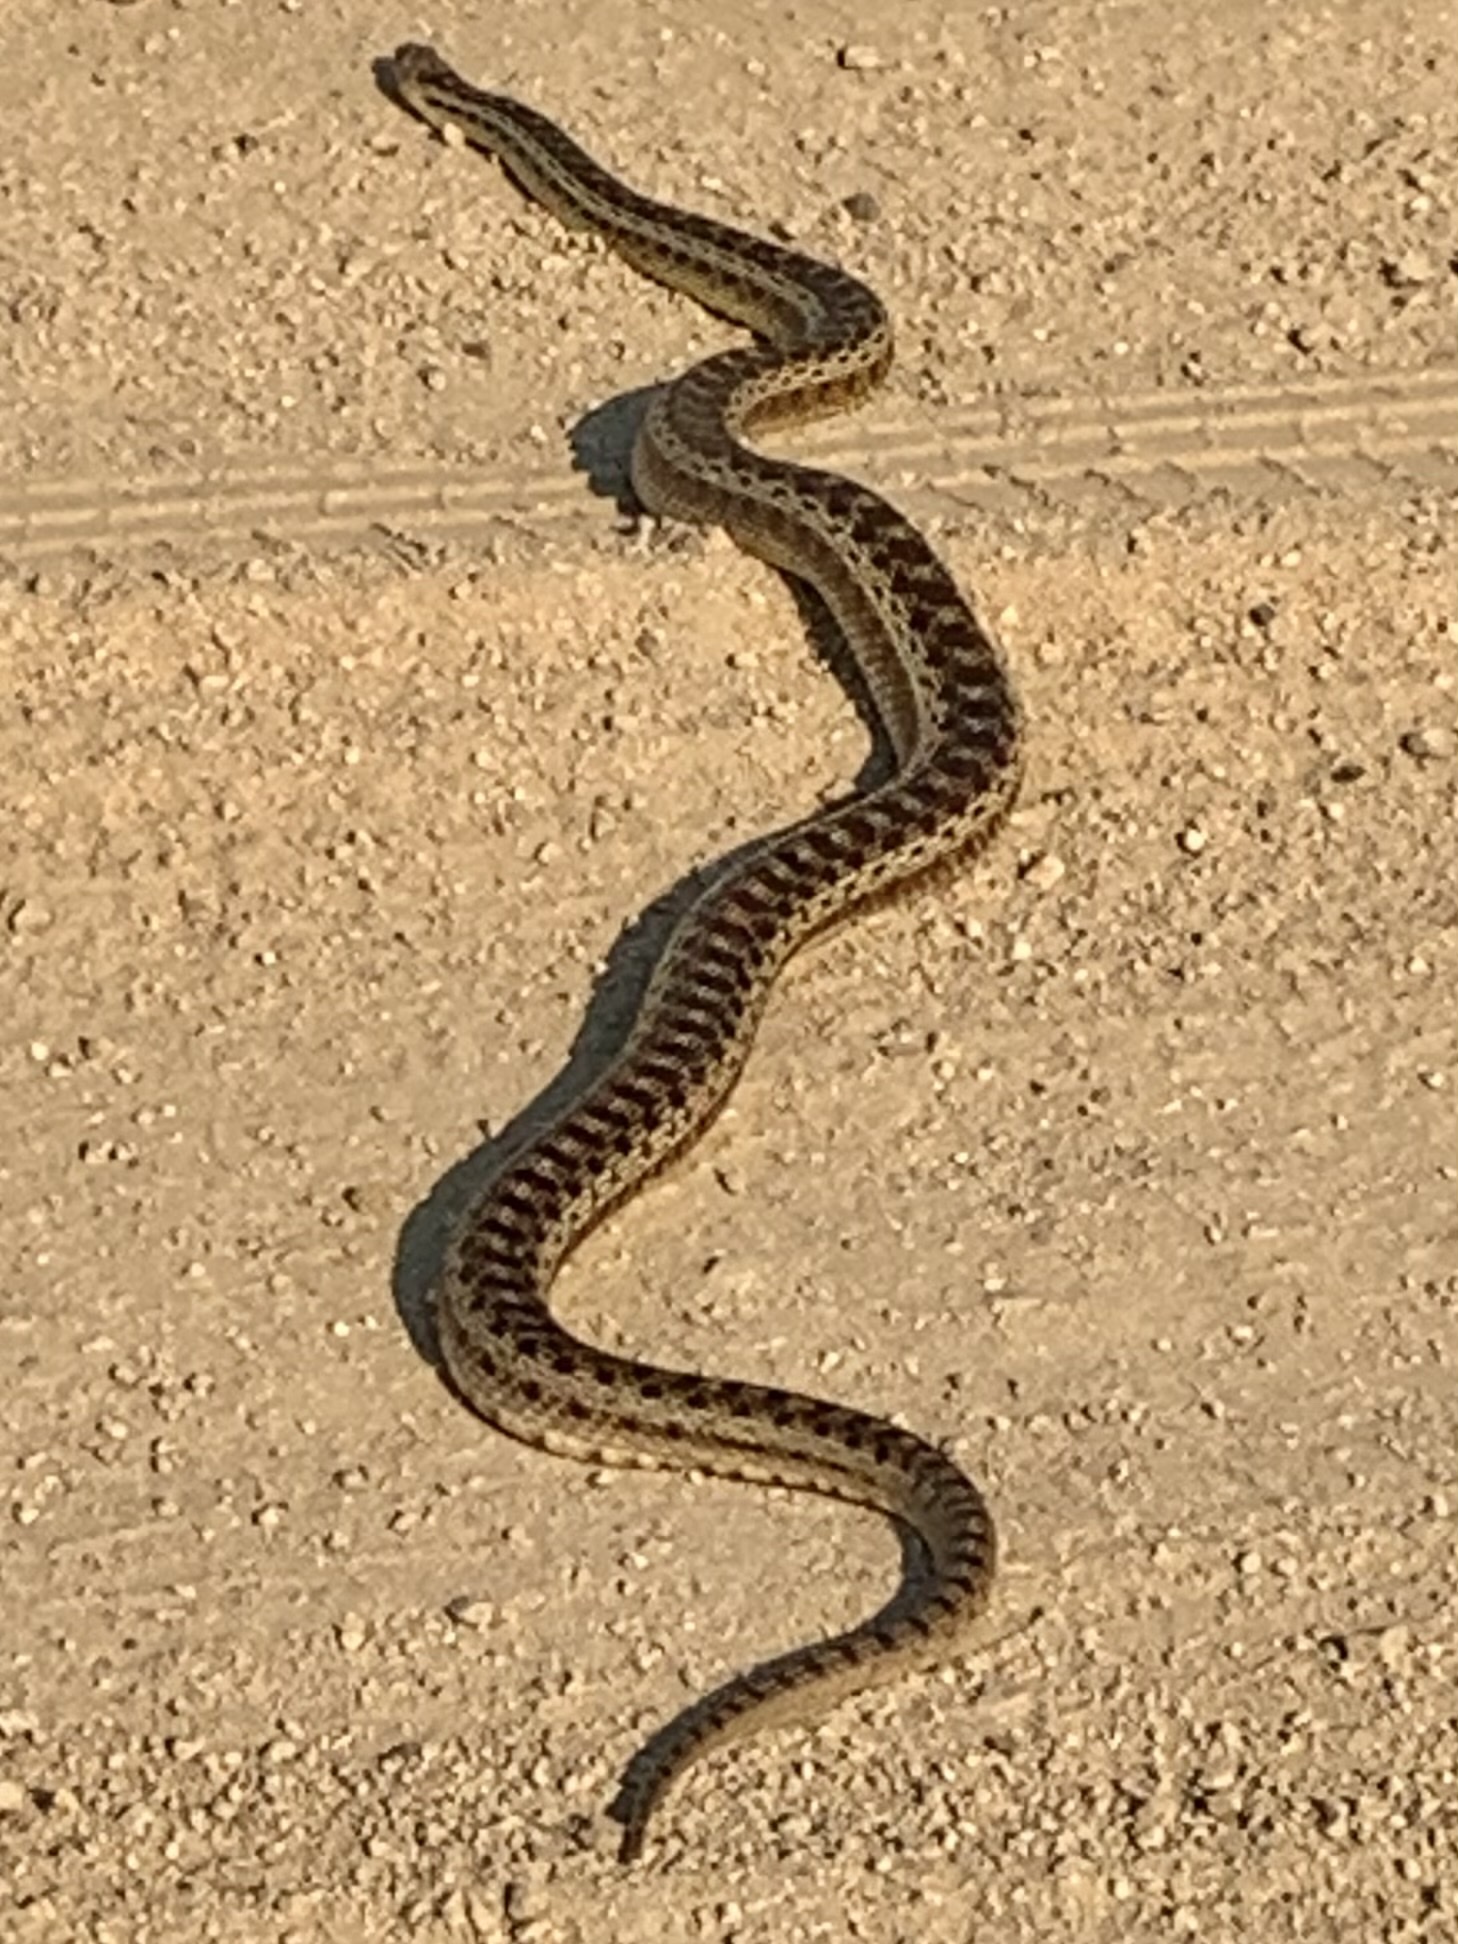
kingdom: Animalia
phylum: Chordata
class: Squamata
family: Colubridae
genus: Pituophis
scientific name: Pituophis catenifer
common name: Gopher snake
